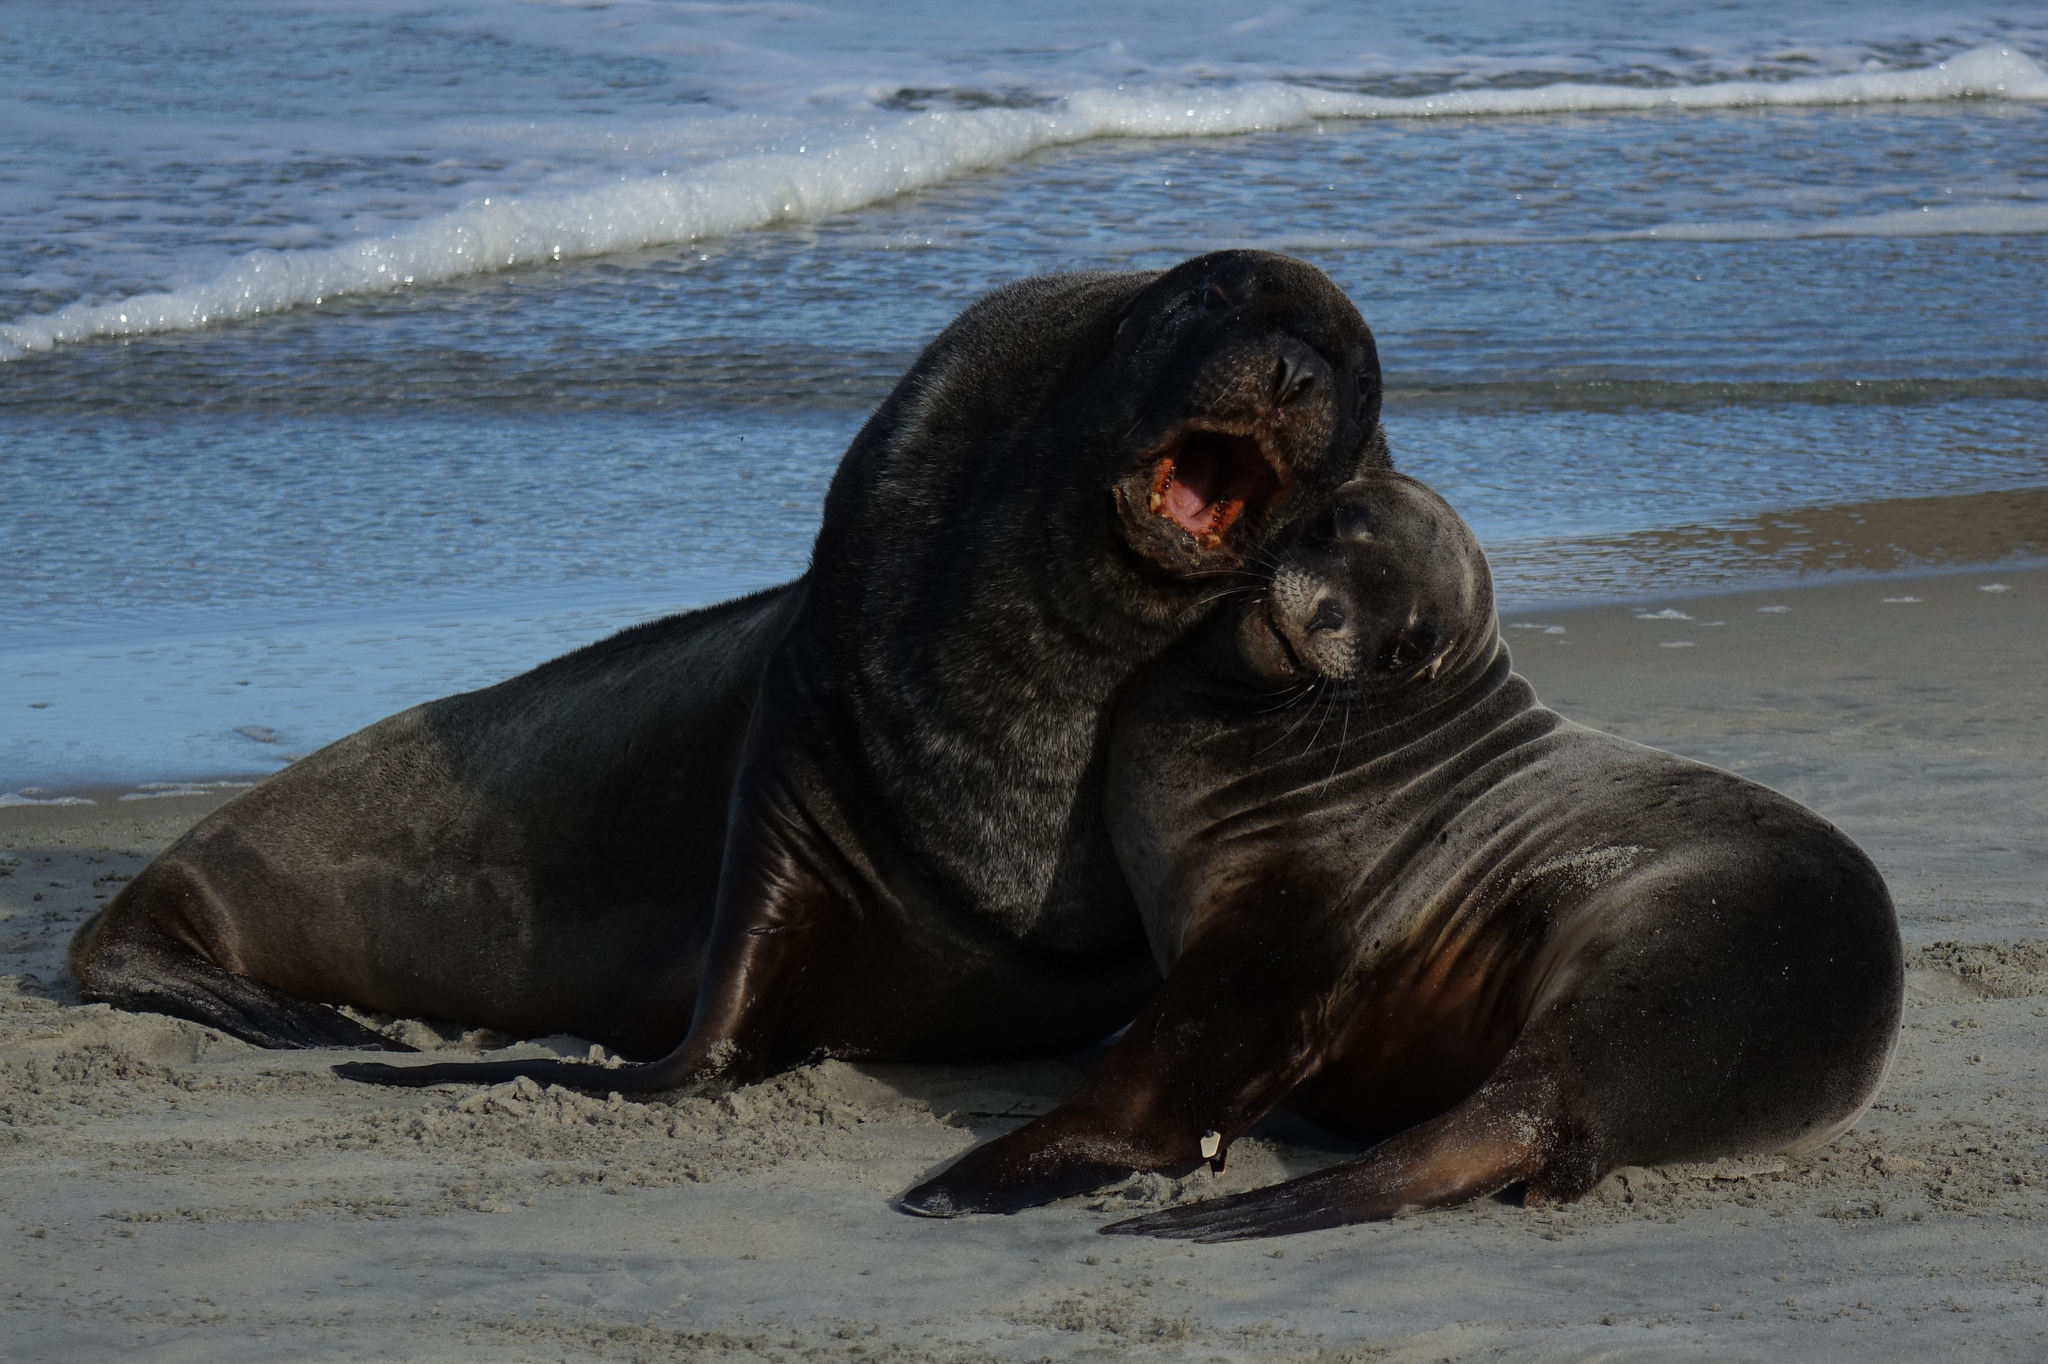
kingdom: Animalia
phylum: Chordata
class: Mammalia
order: Carnivora
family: Otariidae
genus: Phocarctos
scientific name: Phocarctos hookeri
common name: New zealand sea lion
